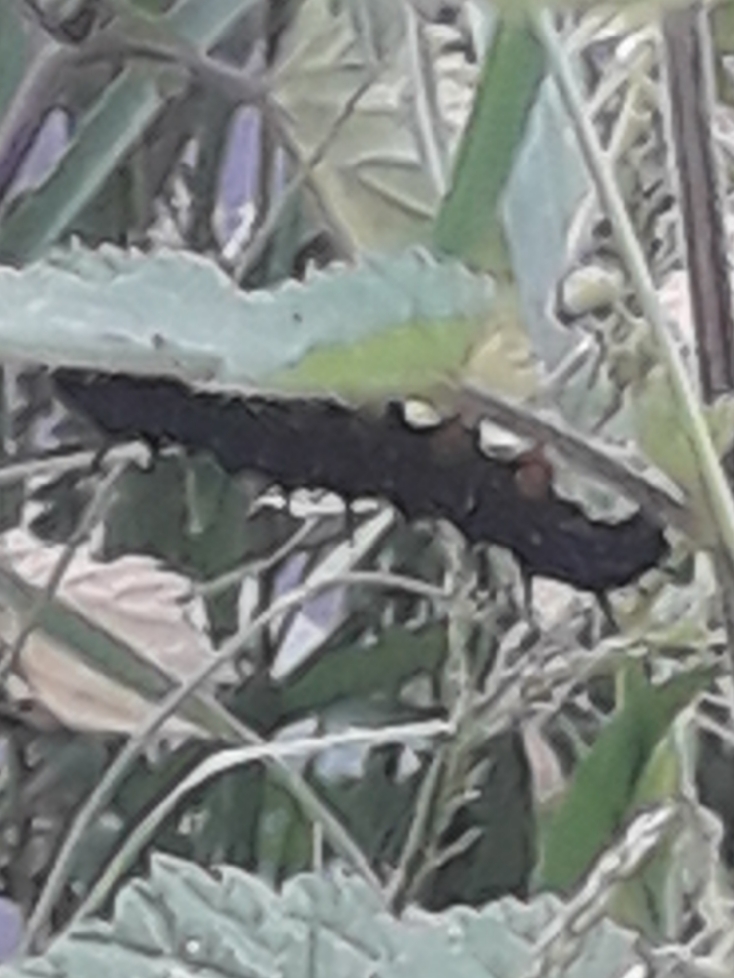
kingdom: Animalia
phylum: Arthropoda
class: Insecta
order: Lepidoptera
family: Nymphalidae
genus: Aglais
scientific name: Aglais io
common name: Peacock
